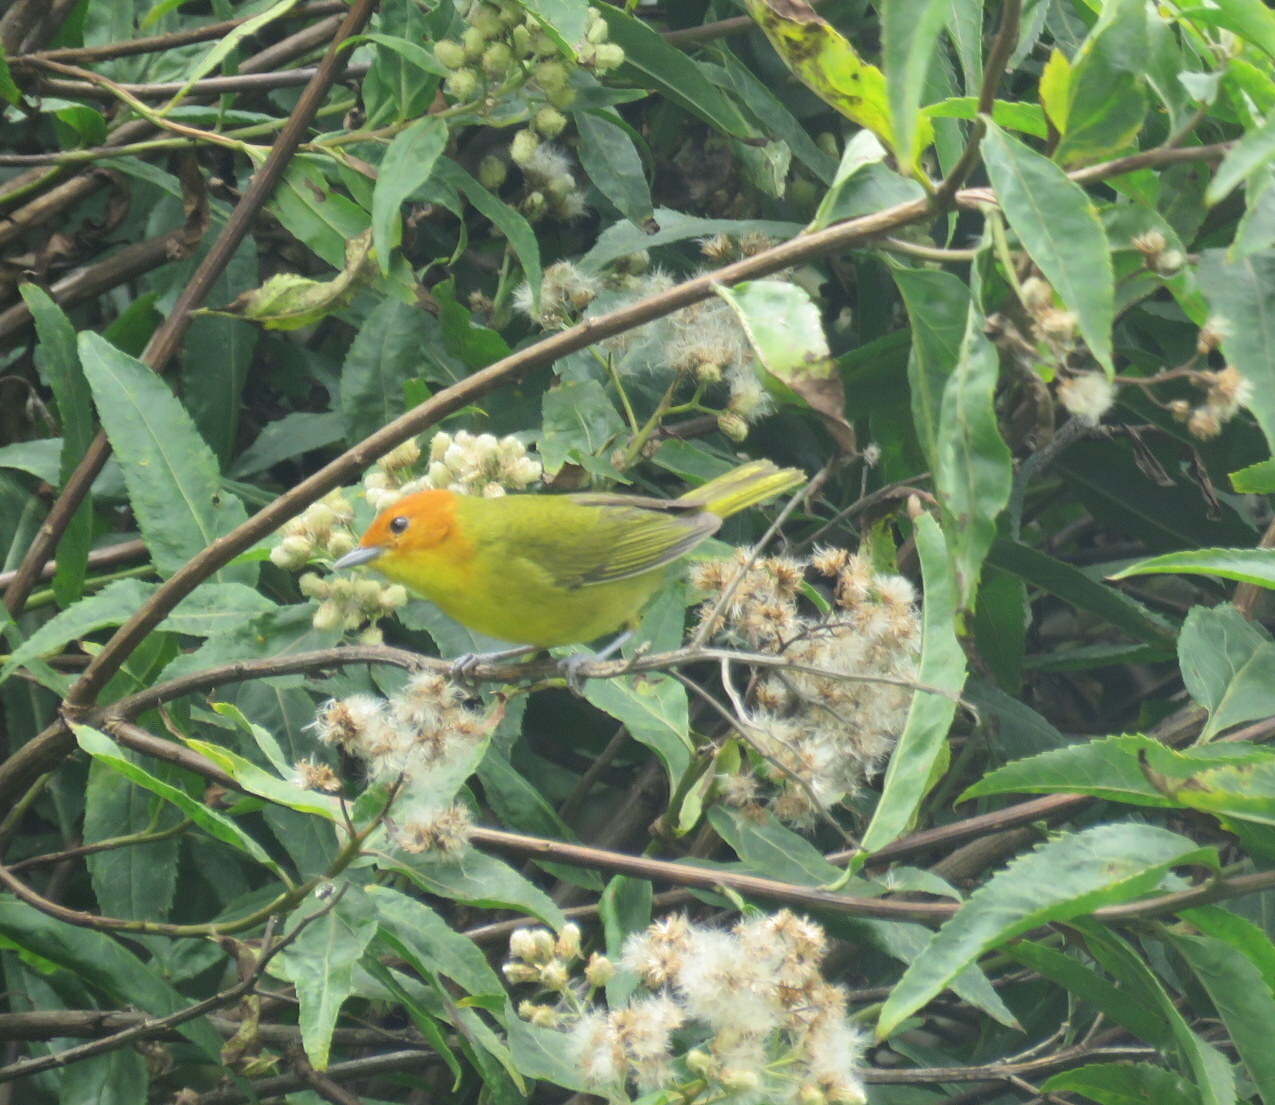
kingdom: Animalia
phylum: Chordata
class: Aves
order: Passeriformes
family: Thraupidae
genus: Thlypopsis
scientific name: Thlypopsis ruficeps
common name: Rust-and-yellow tanager
